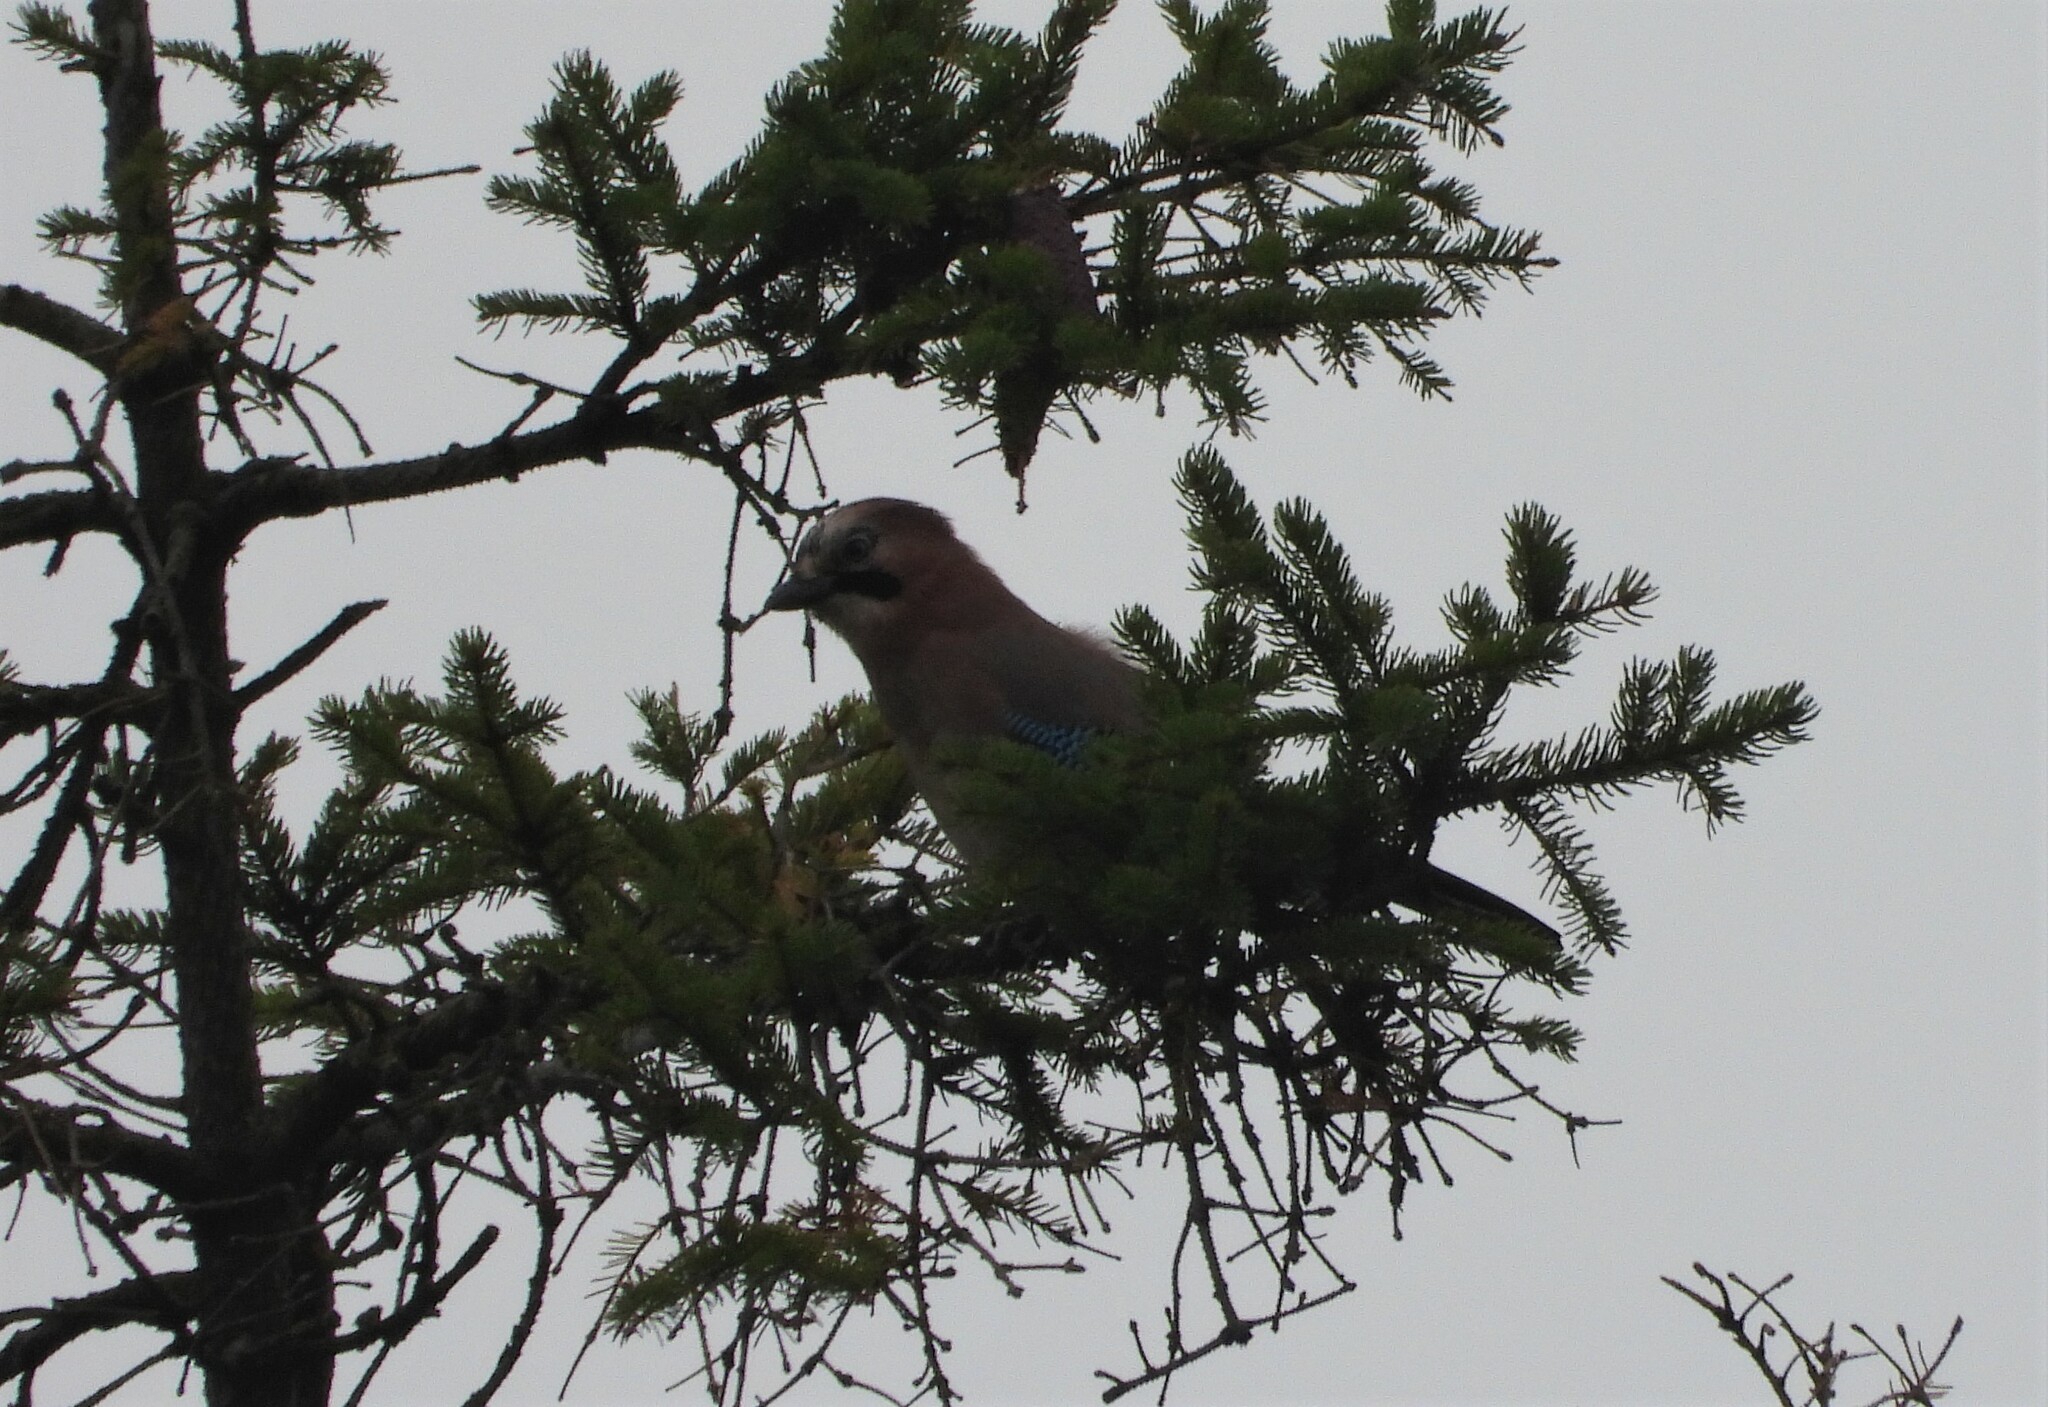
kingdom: Animalia
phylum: Chordata
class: Aves
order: Passeriformes
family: Corvidae
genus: Garrulus
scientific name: Garrulus glandarius
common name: Eurasian jay
